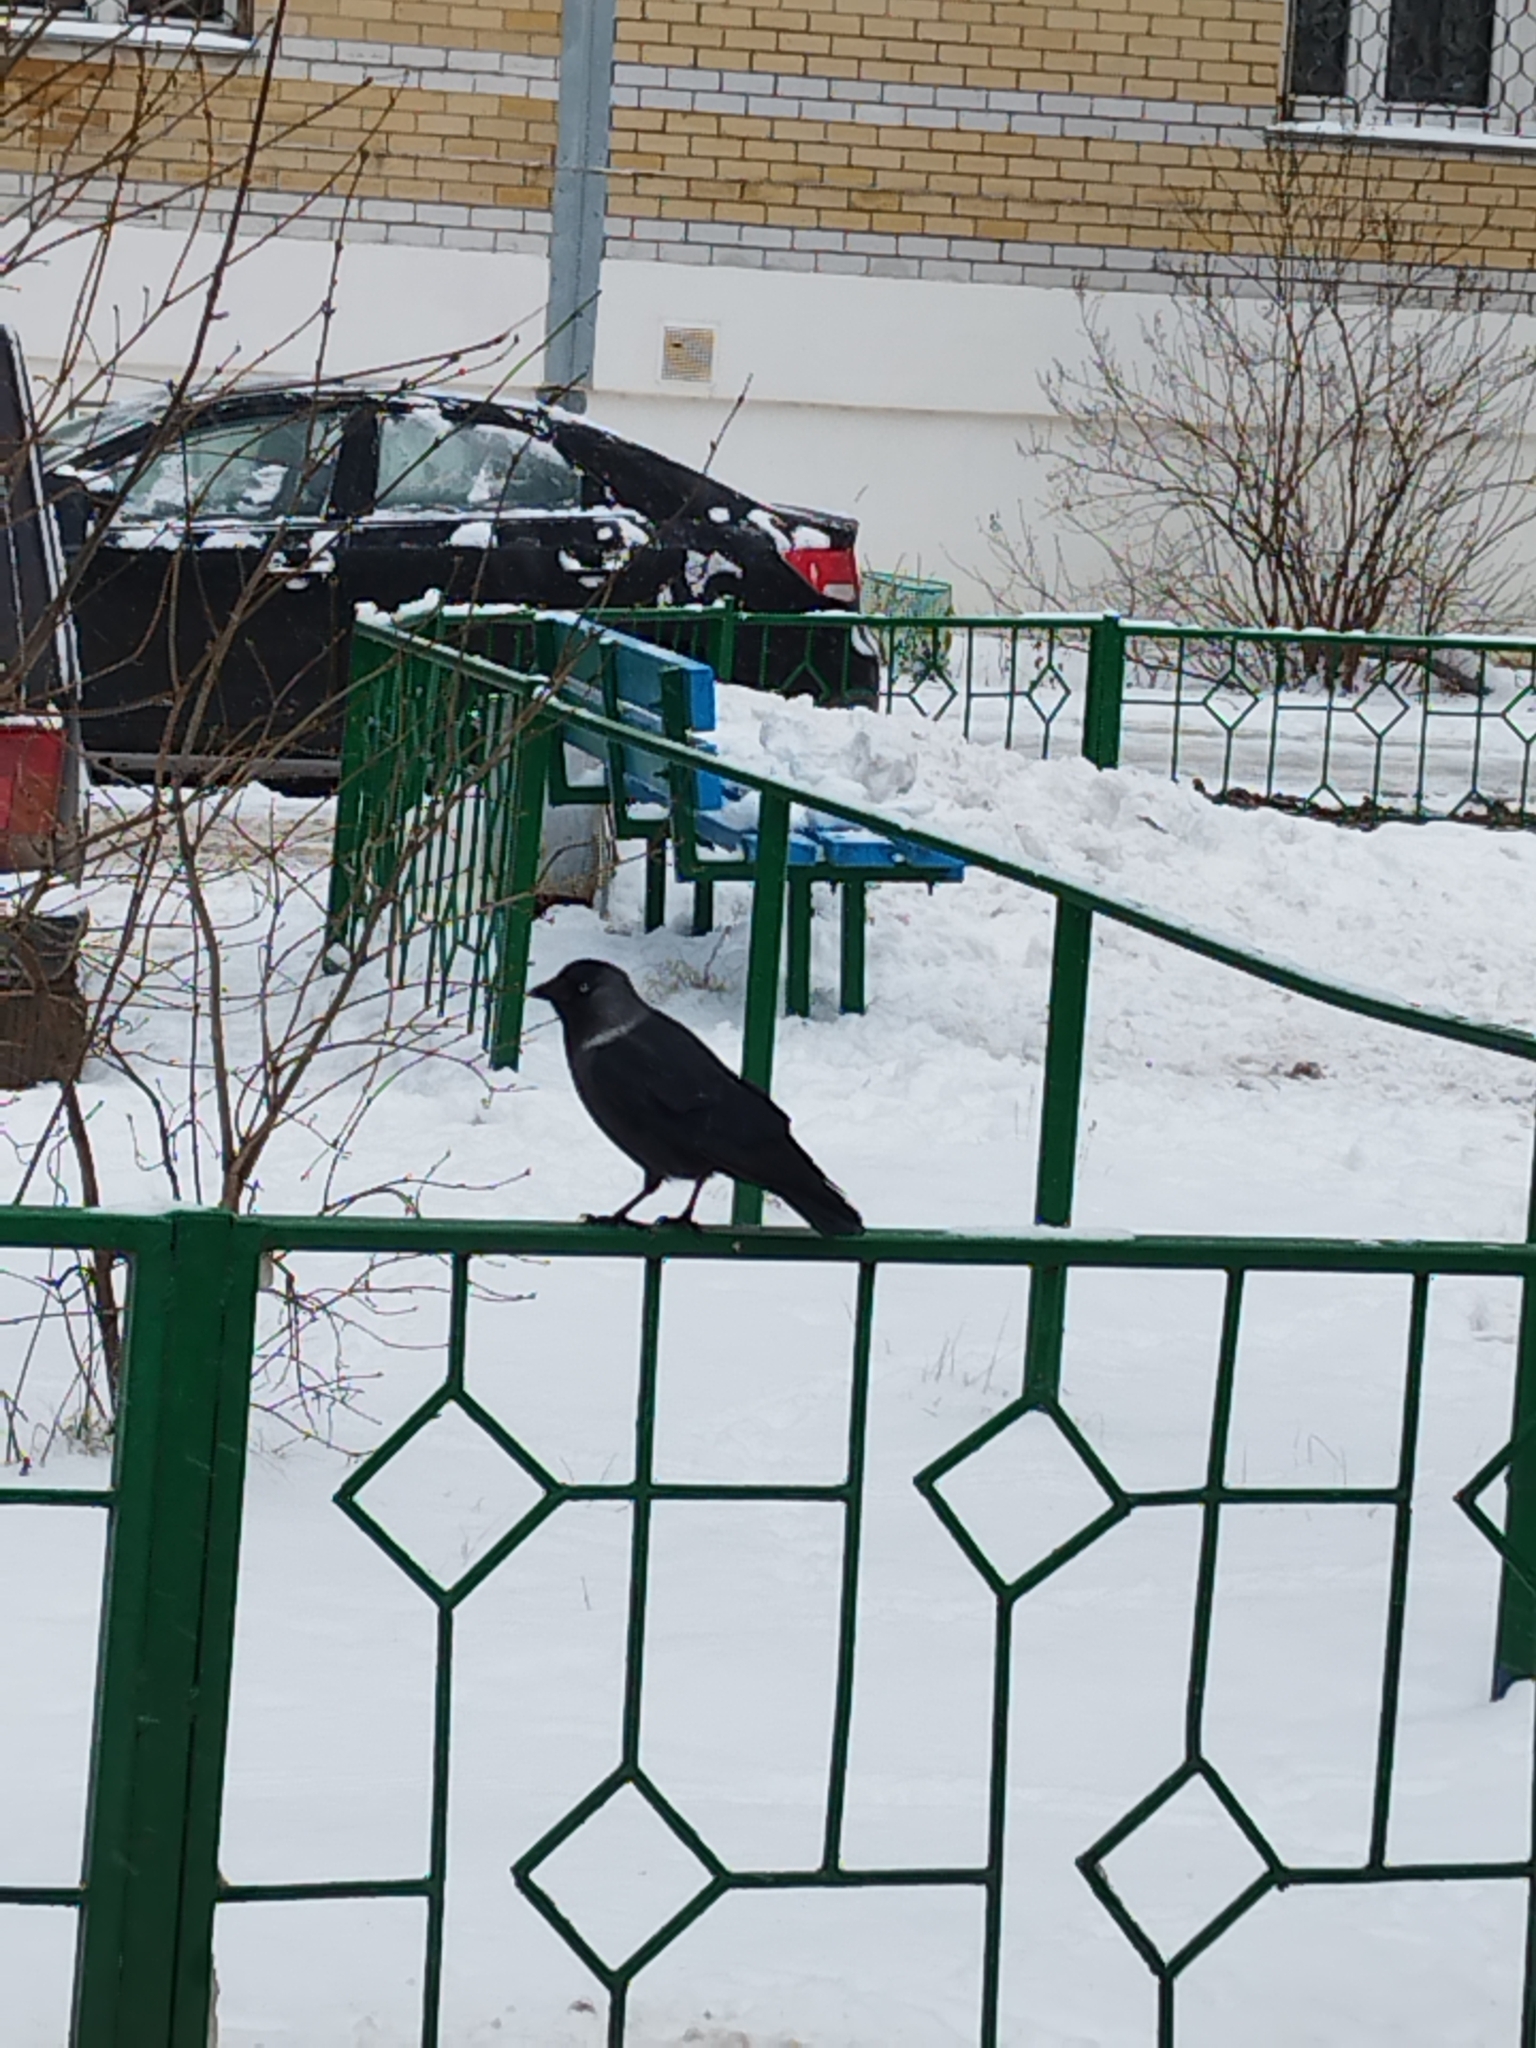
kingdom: Animalia
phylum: Chordata
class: Aves
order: Passeriformes
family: Corvidae
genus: Coloeus
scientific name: Coloeus monedula
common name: Western jackdaw
